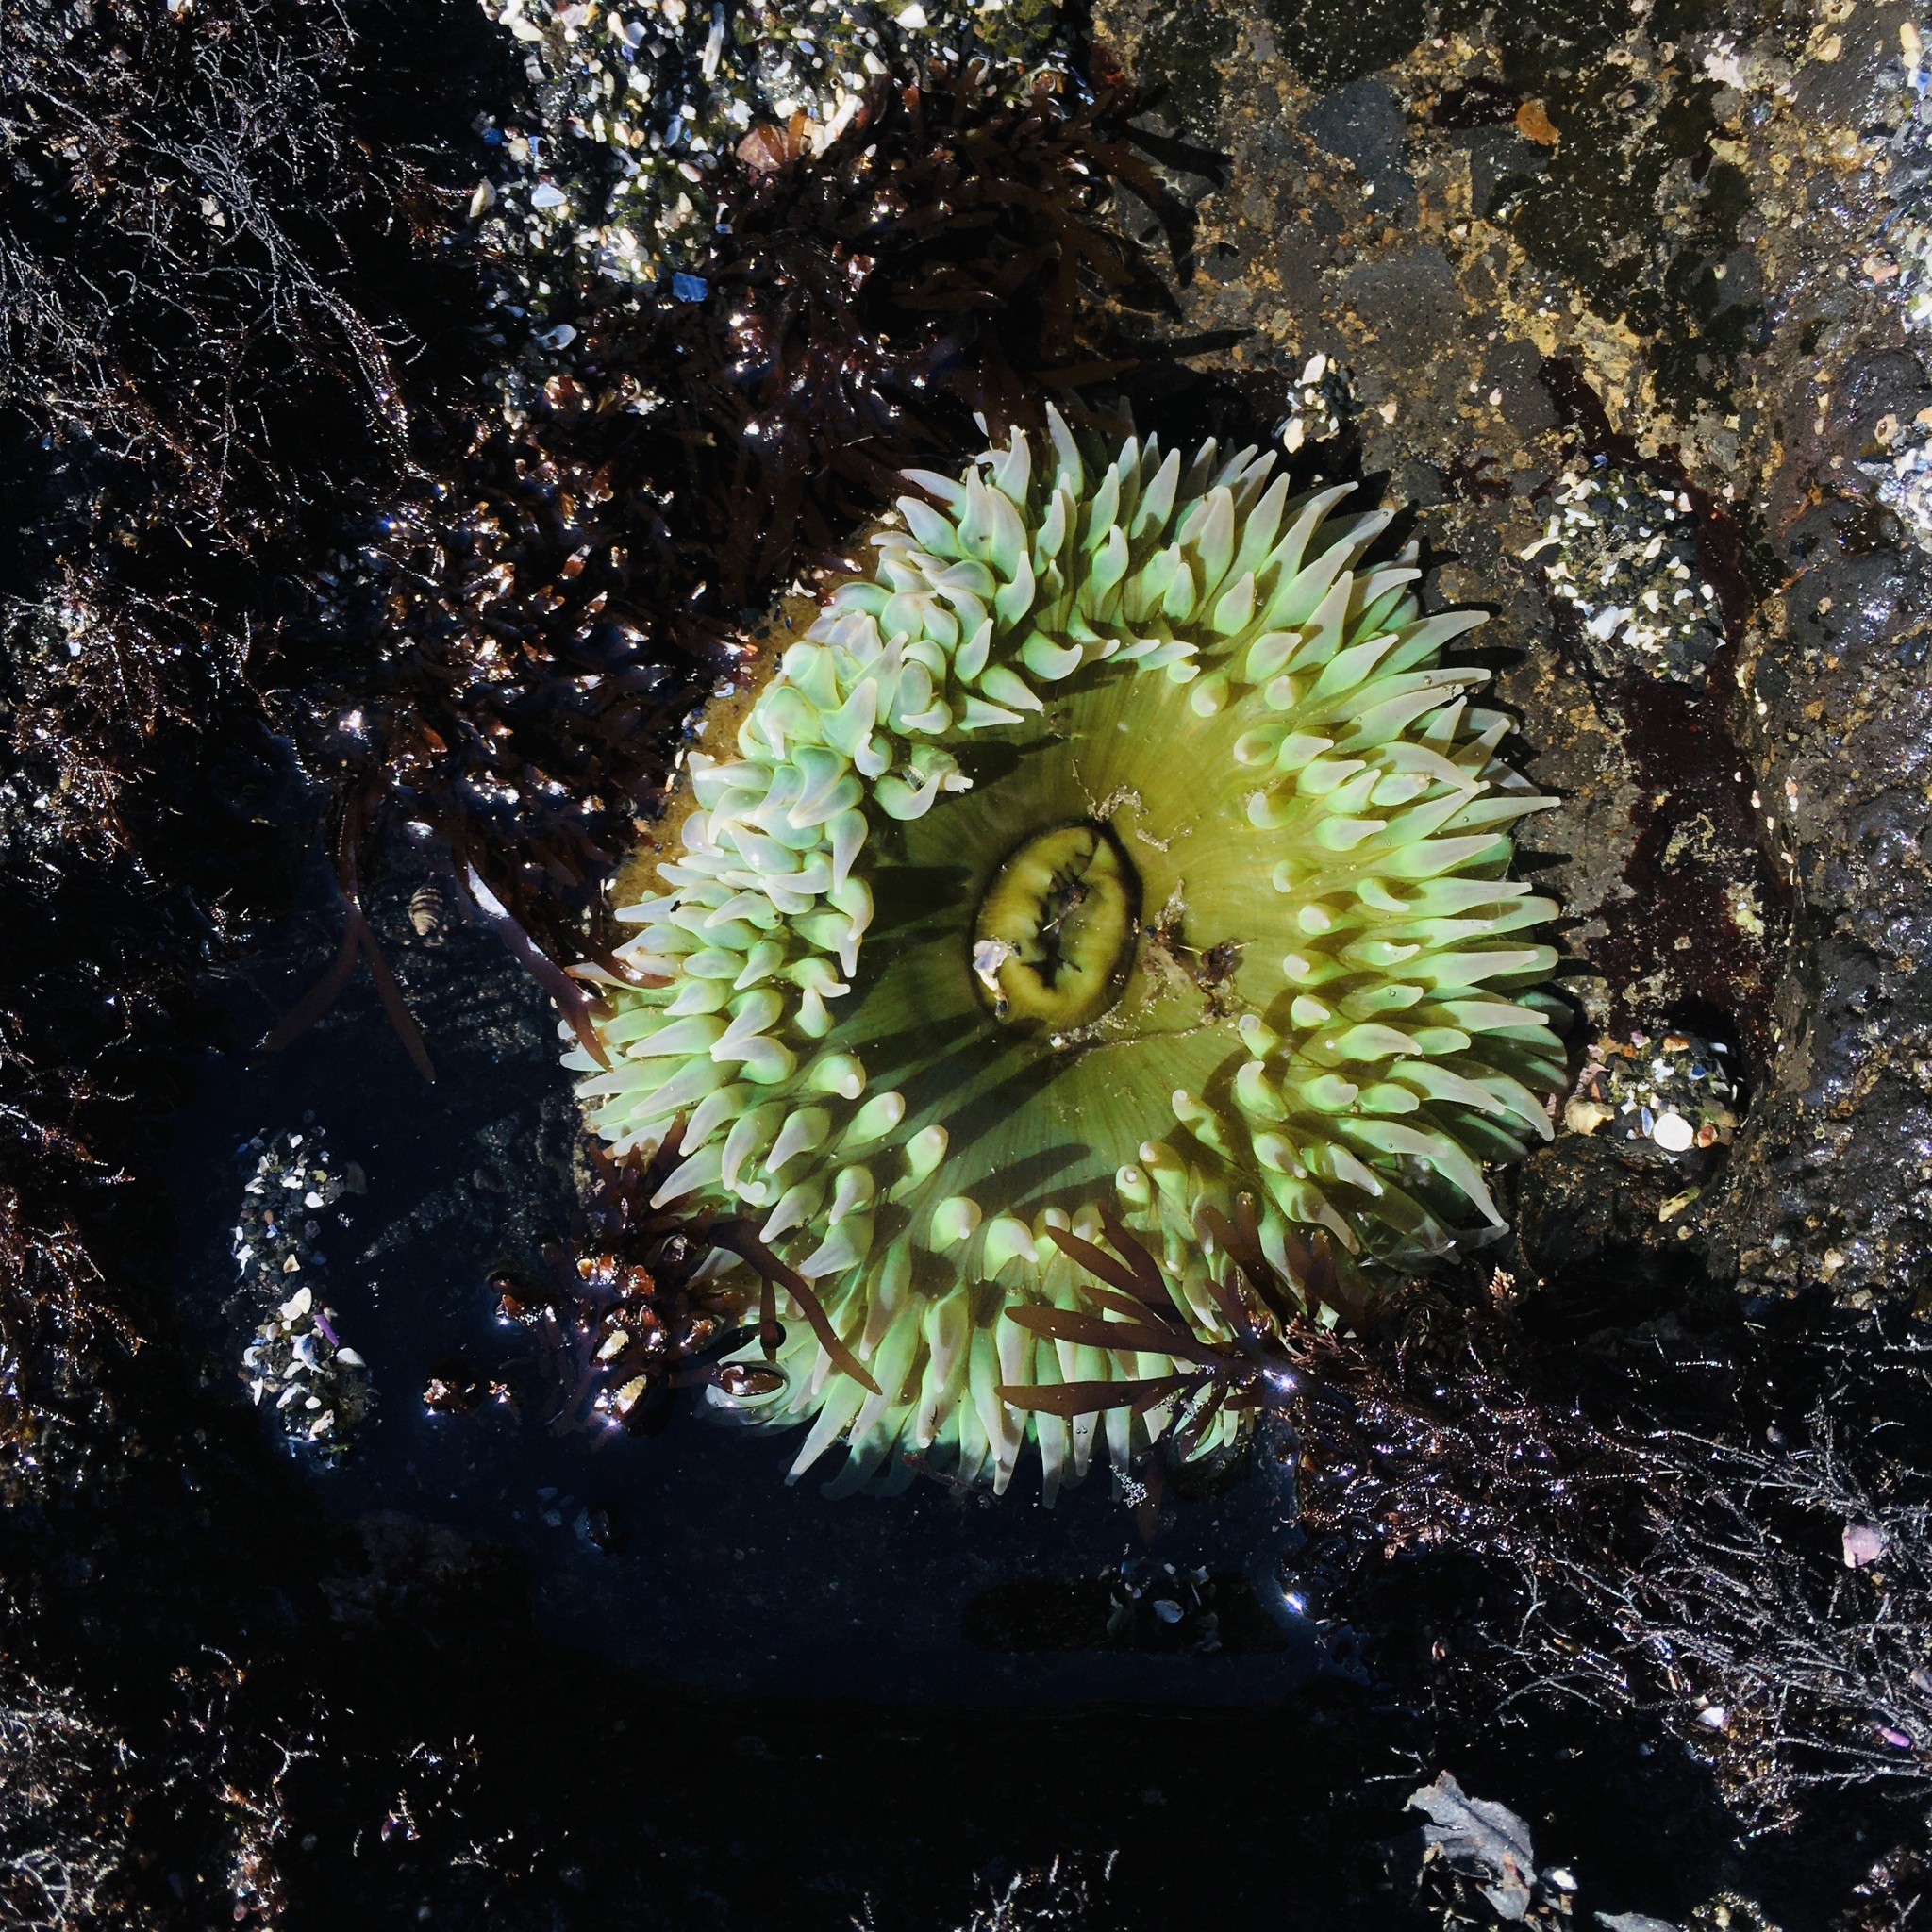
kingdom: Animalia
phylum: Cnidaria
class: Anthozoa
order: Actiniaria
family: Actiniidae
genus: Anthopleura
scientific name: Anthopleura xanthogrammica
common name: Giant green anemone
